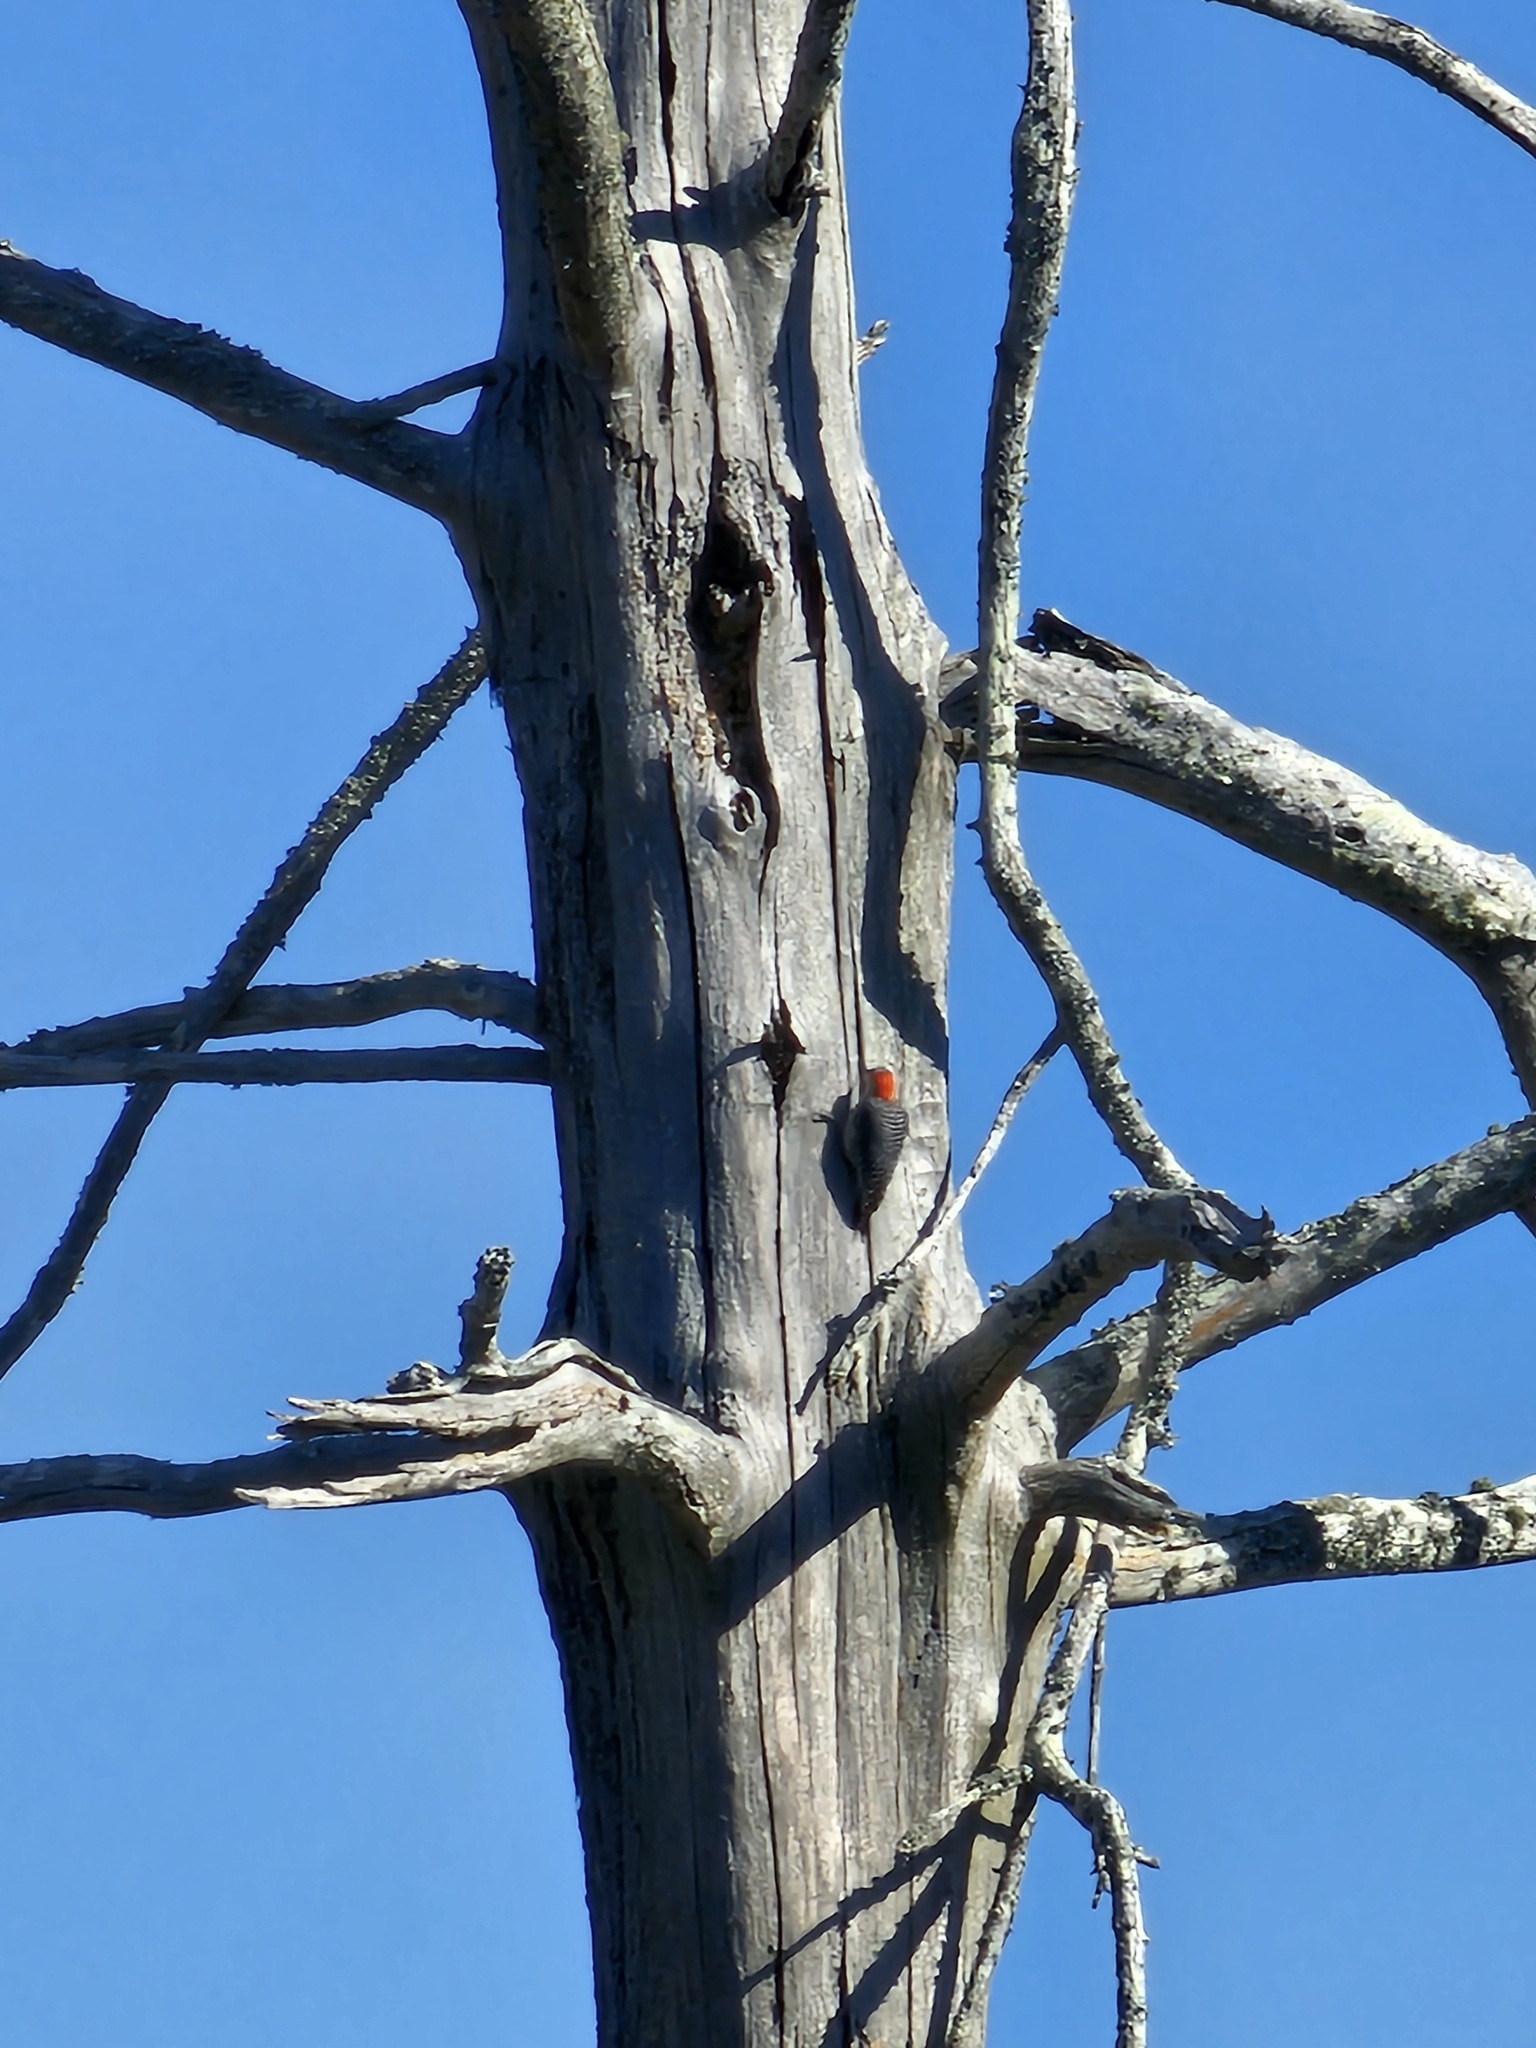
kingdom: Animalia
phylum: Chordata
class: Aves
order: Piciformes
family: Picidae
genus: Melanerpes
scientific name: Melanerpes carolinus
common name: Red-bellied woodpecker
